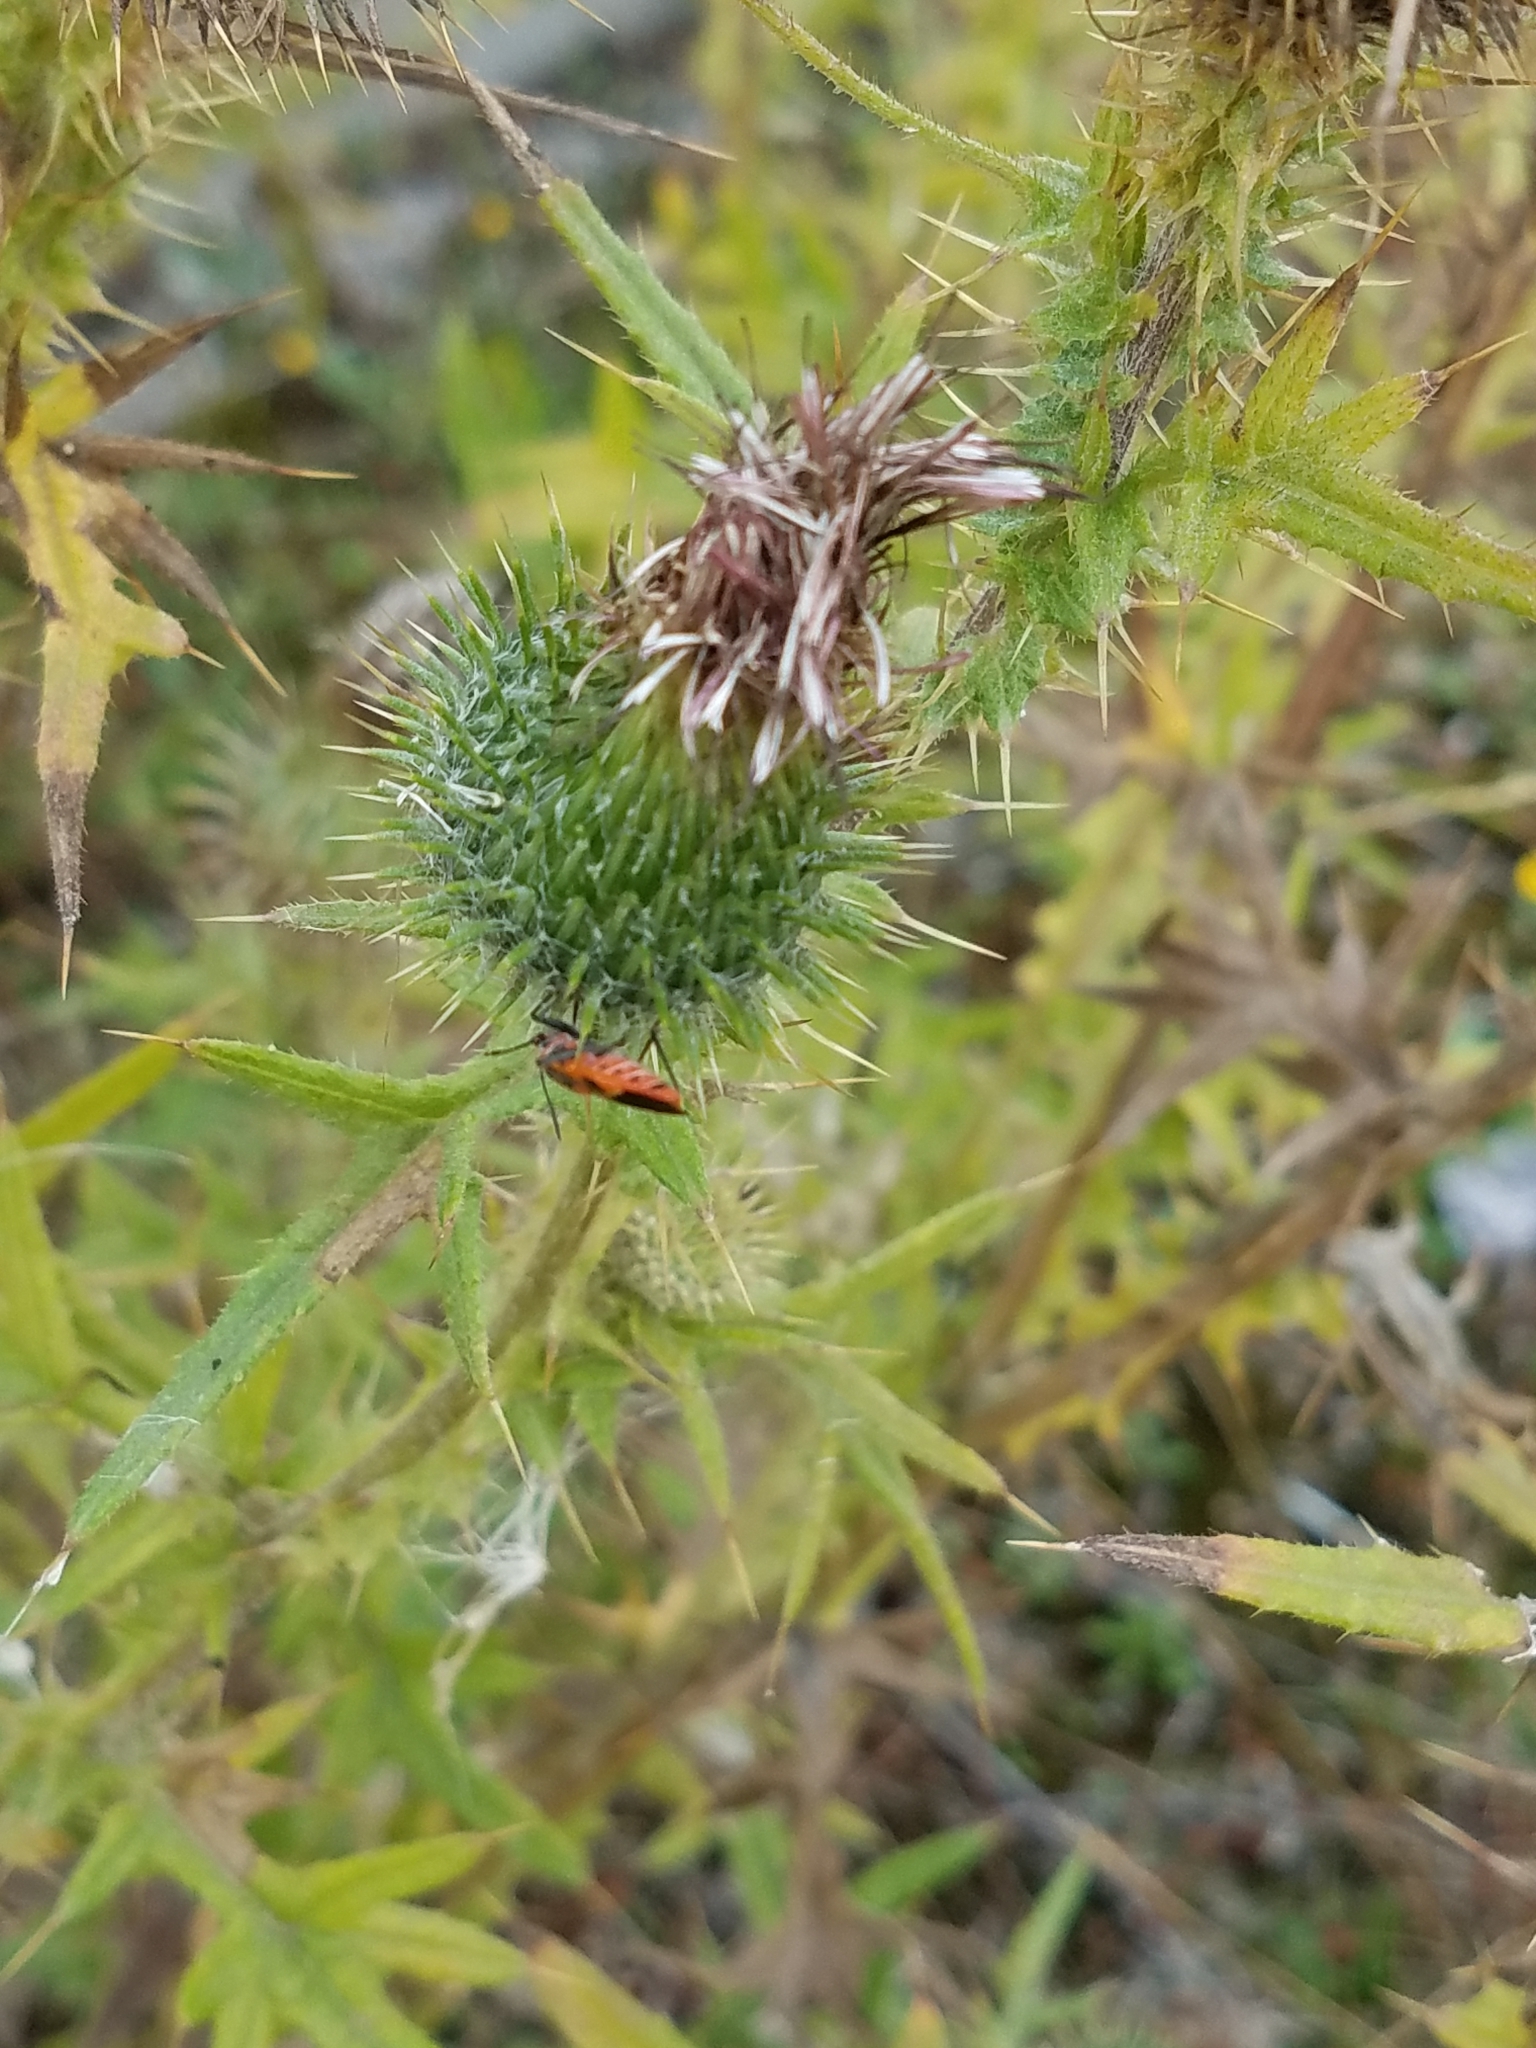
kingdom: Plantae
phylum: Tracheophyta
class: Magnoliopsida
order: Asterales
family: Asteraceae
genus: Cirsium
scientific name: Cirsium vulgare
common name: Bull thistle
